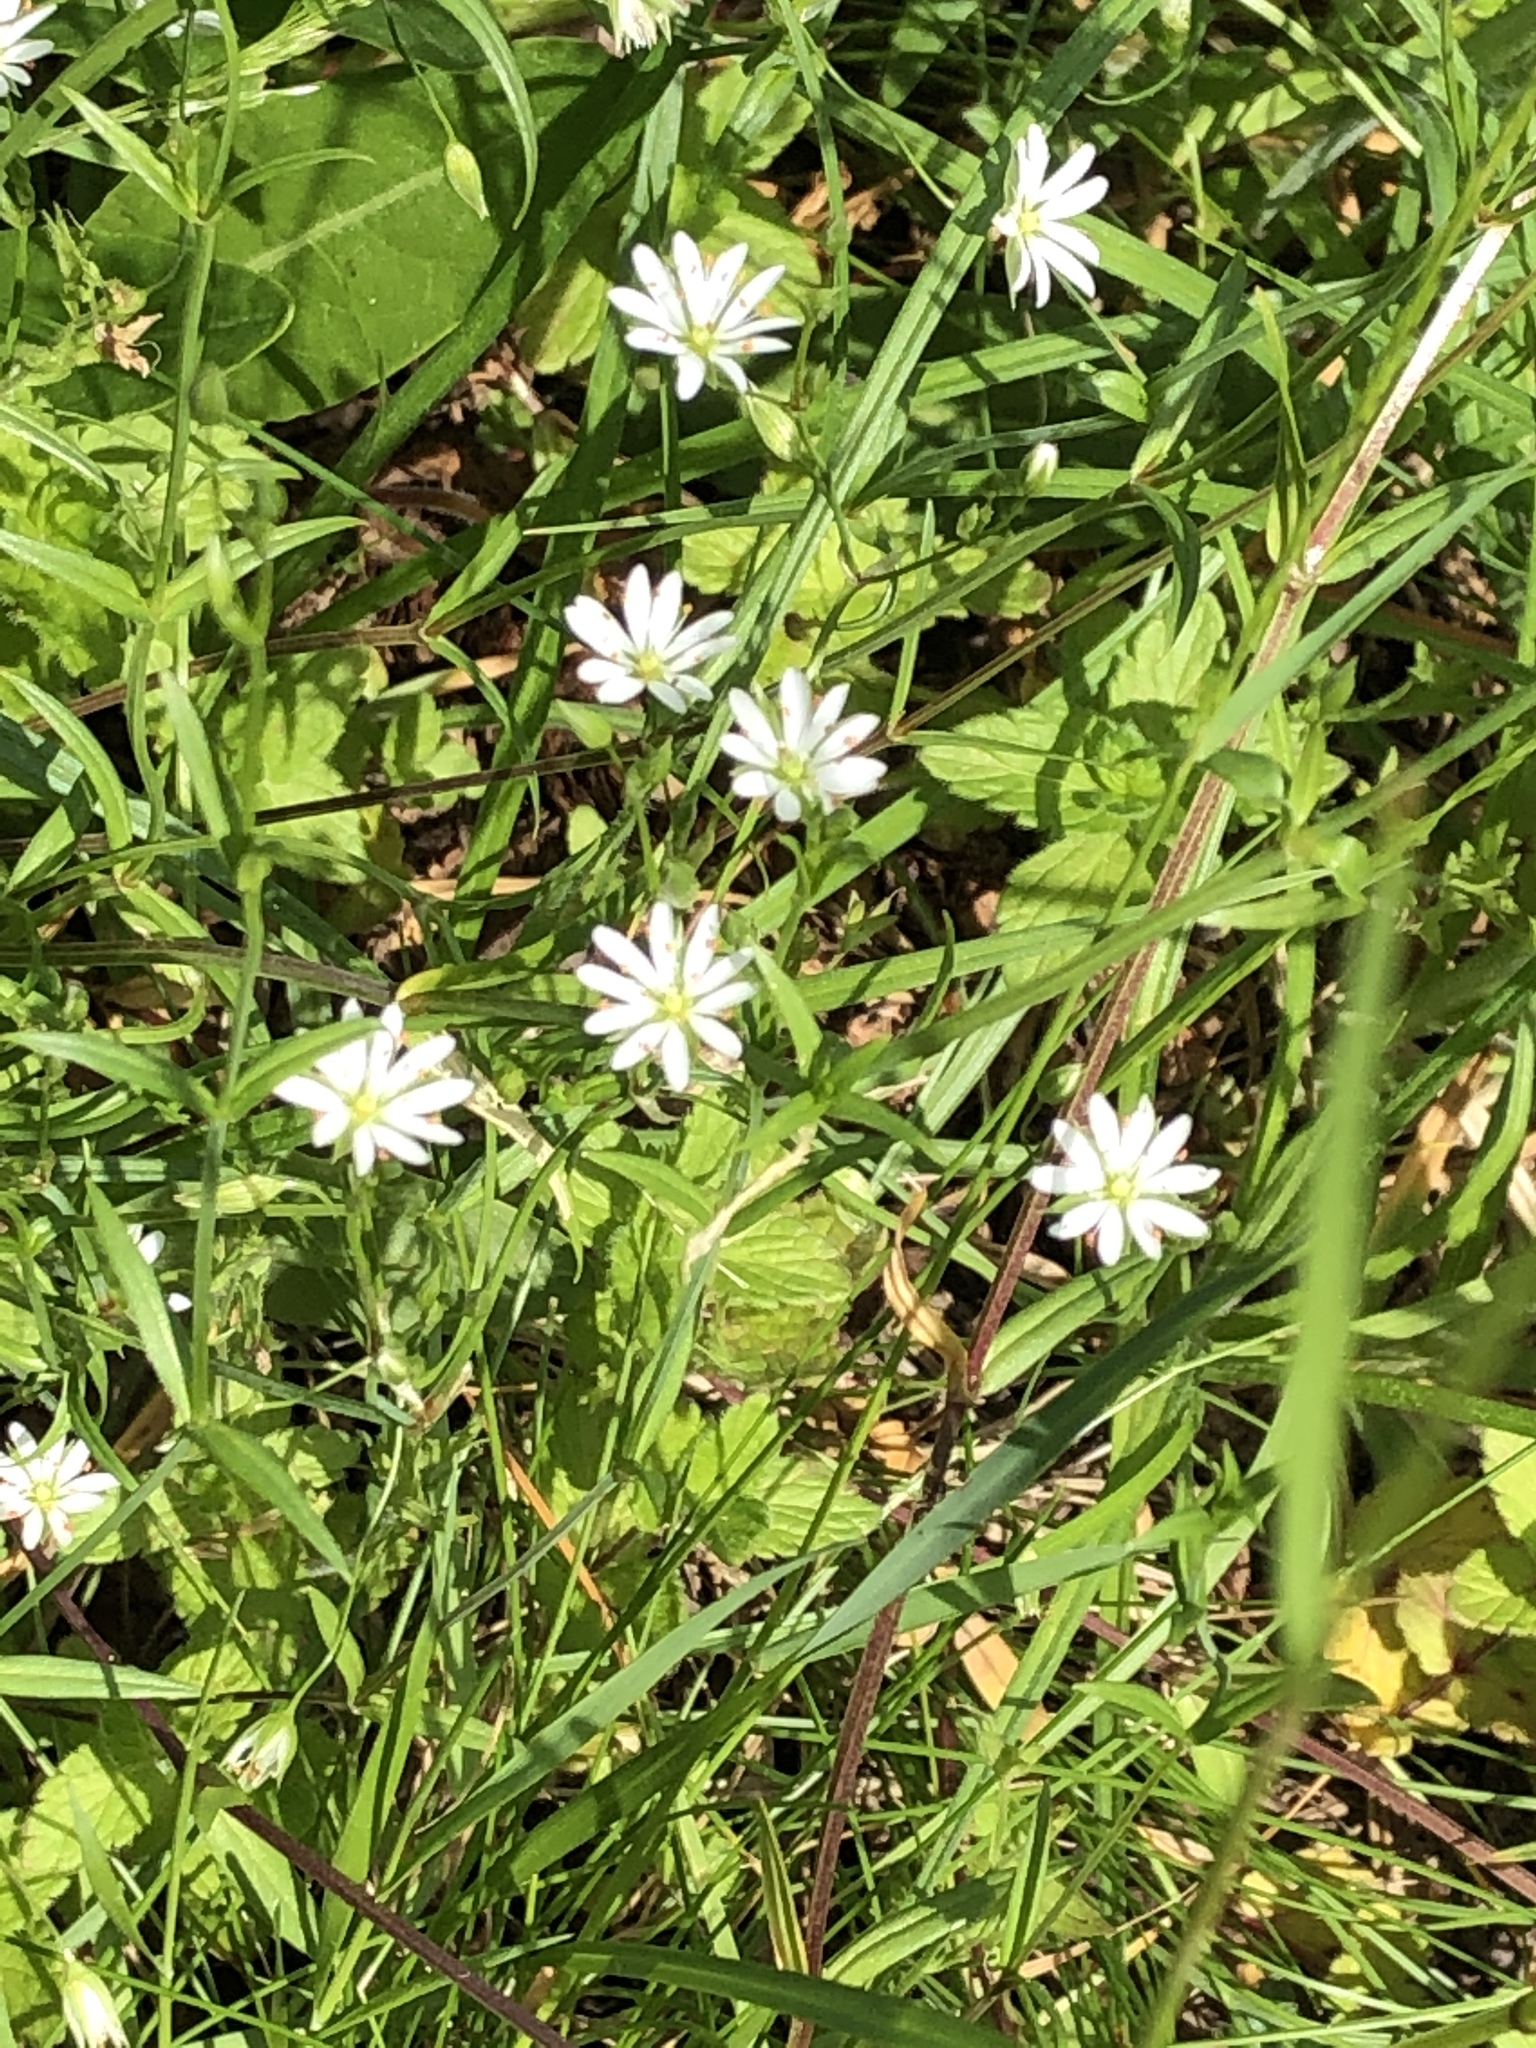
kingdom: Plantae
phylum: Tracheophyta
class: Magnoliopsida
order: Caryophyllales
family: Caryophyllaceae
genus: Stellaria
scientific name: Stellaria graminea
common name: Grass-like starwort
